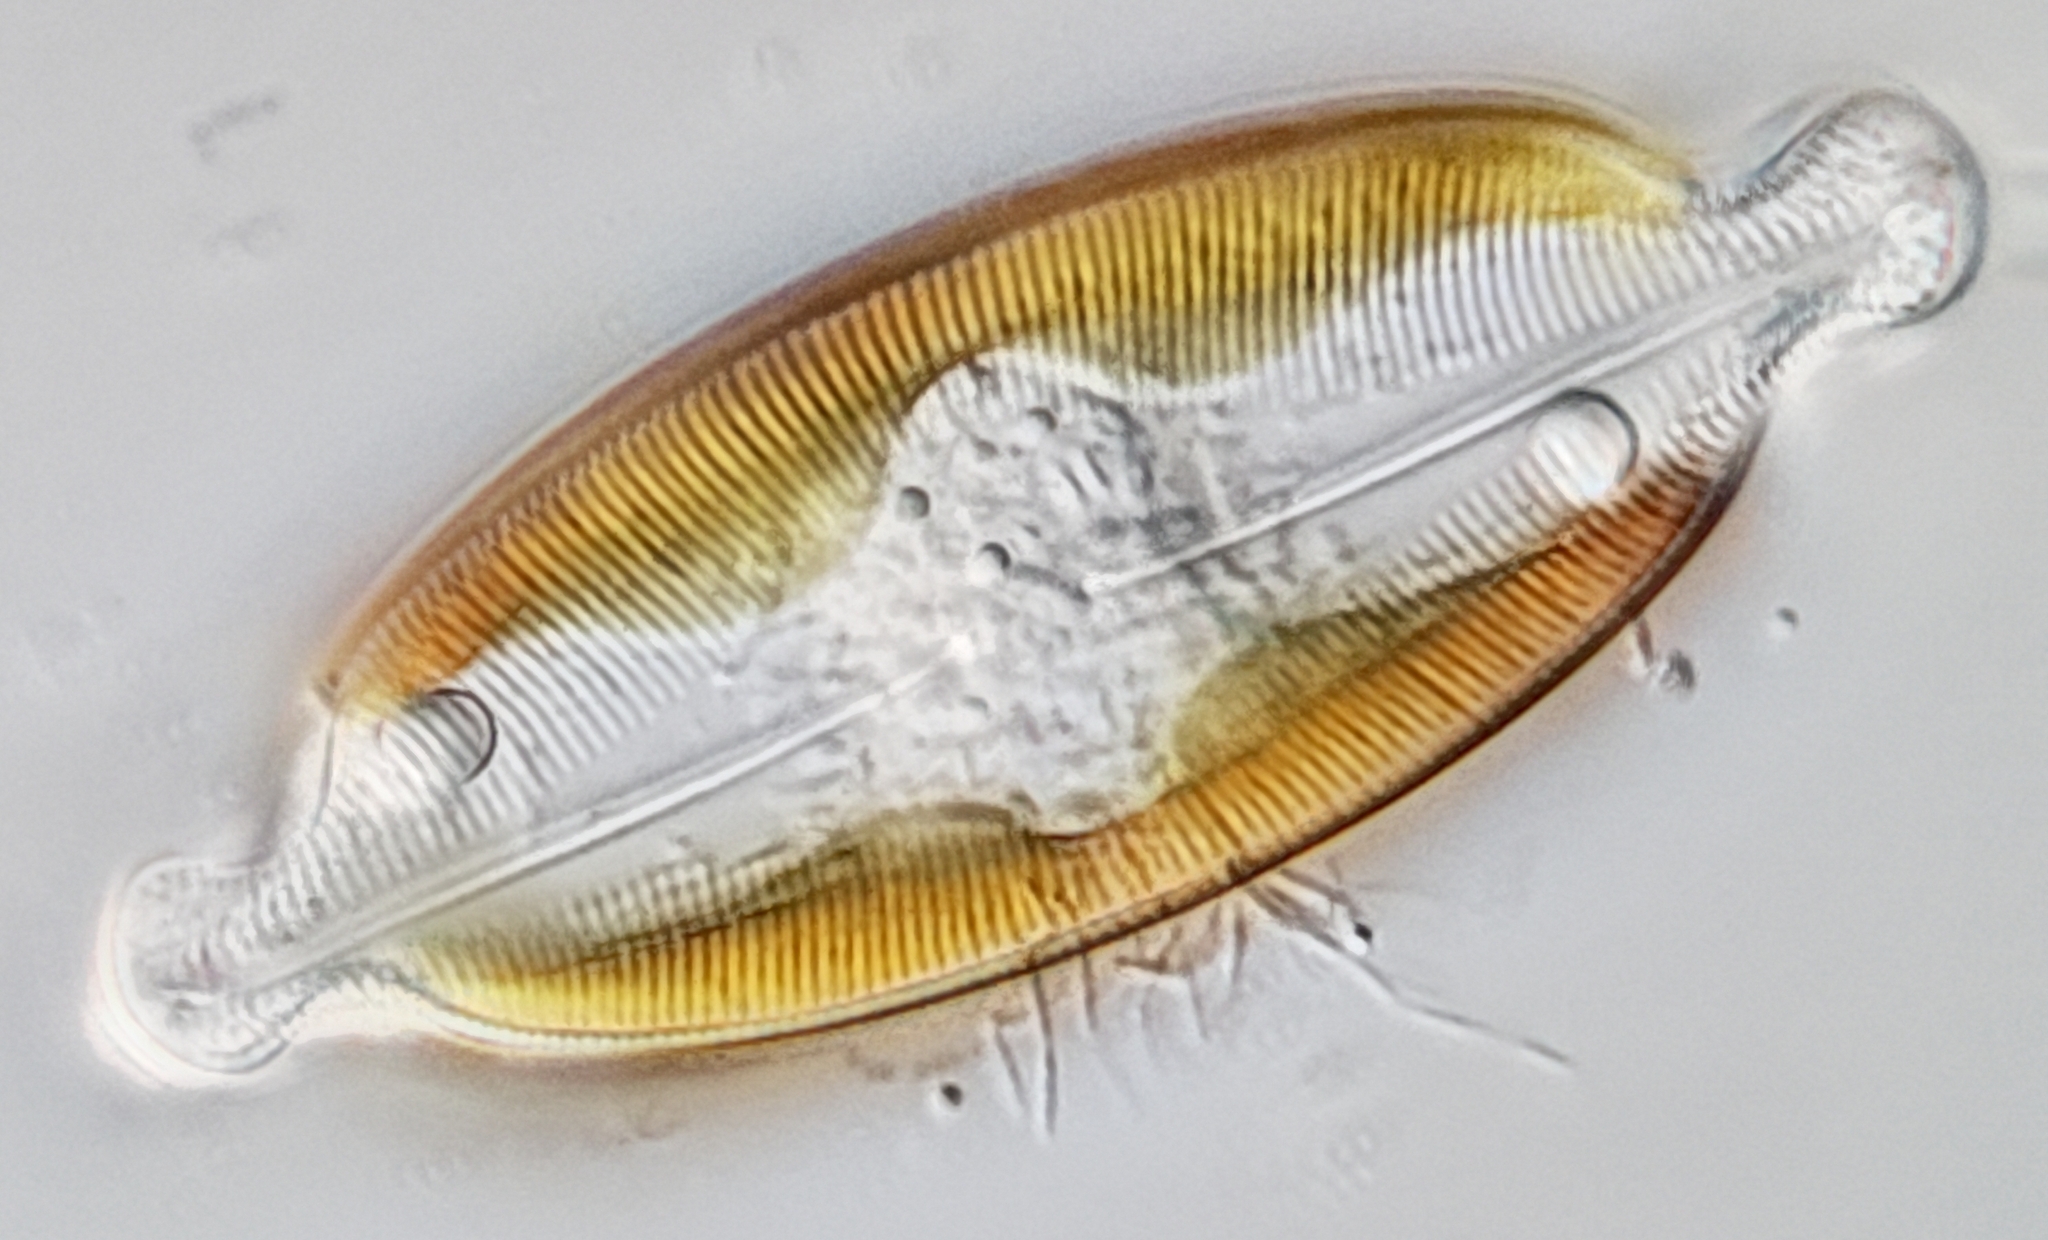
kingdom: Chromista
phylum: Ochrophyta
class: Bacillariophyceae
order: Naviculales
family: Naviculaceae
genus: Caloneis
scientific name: Caloneis amphisbaena
